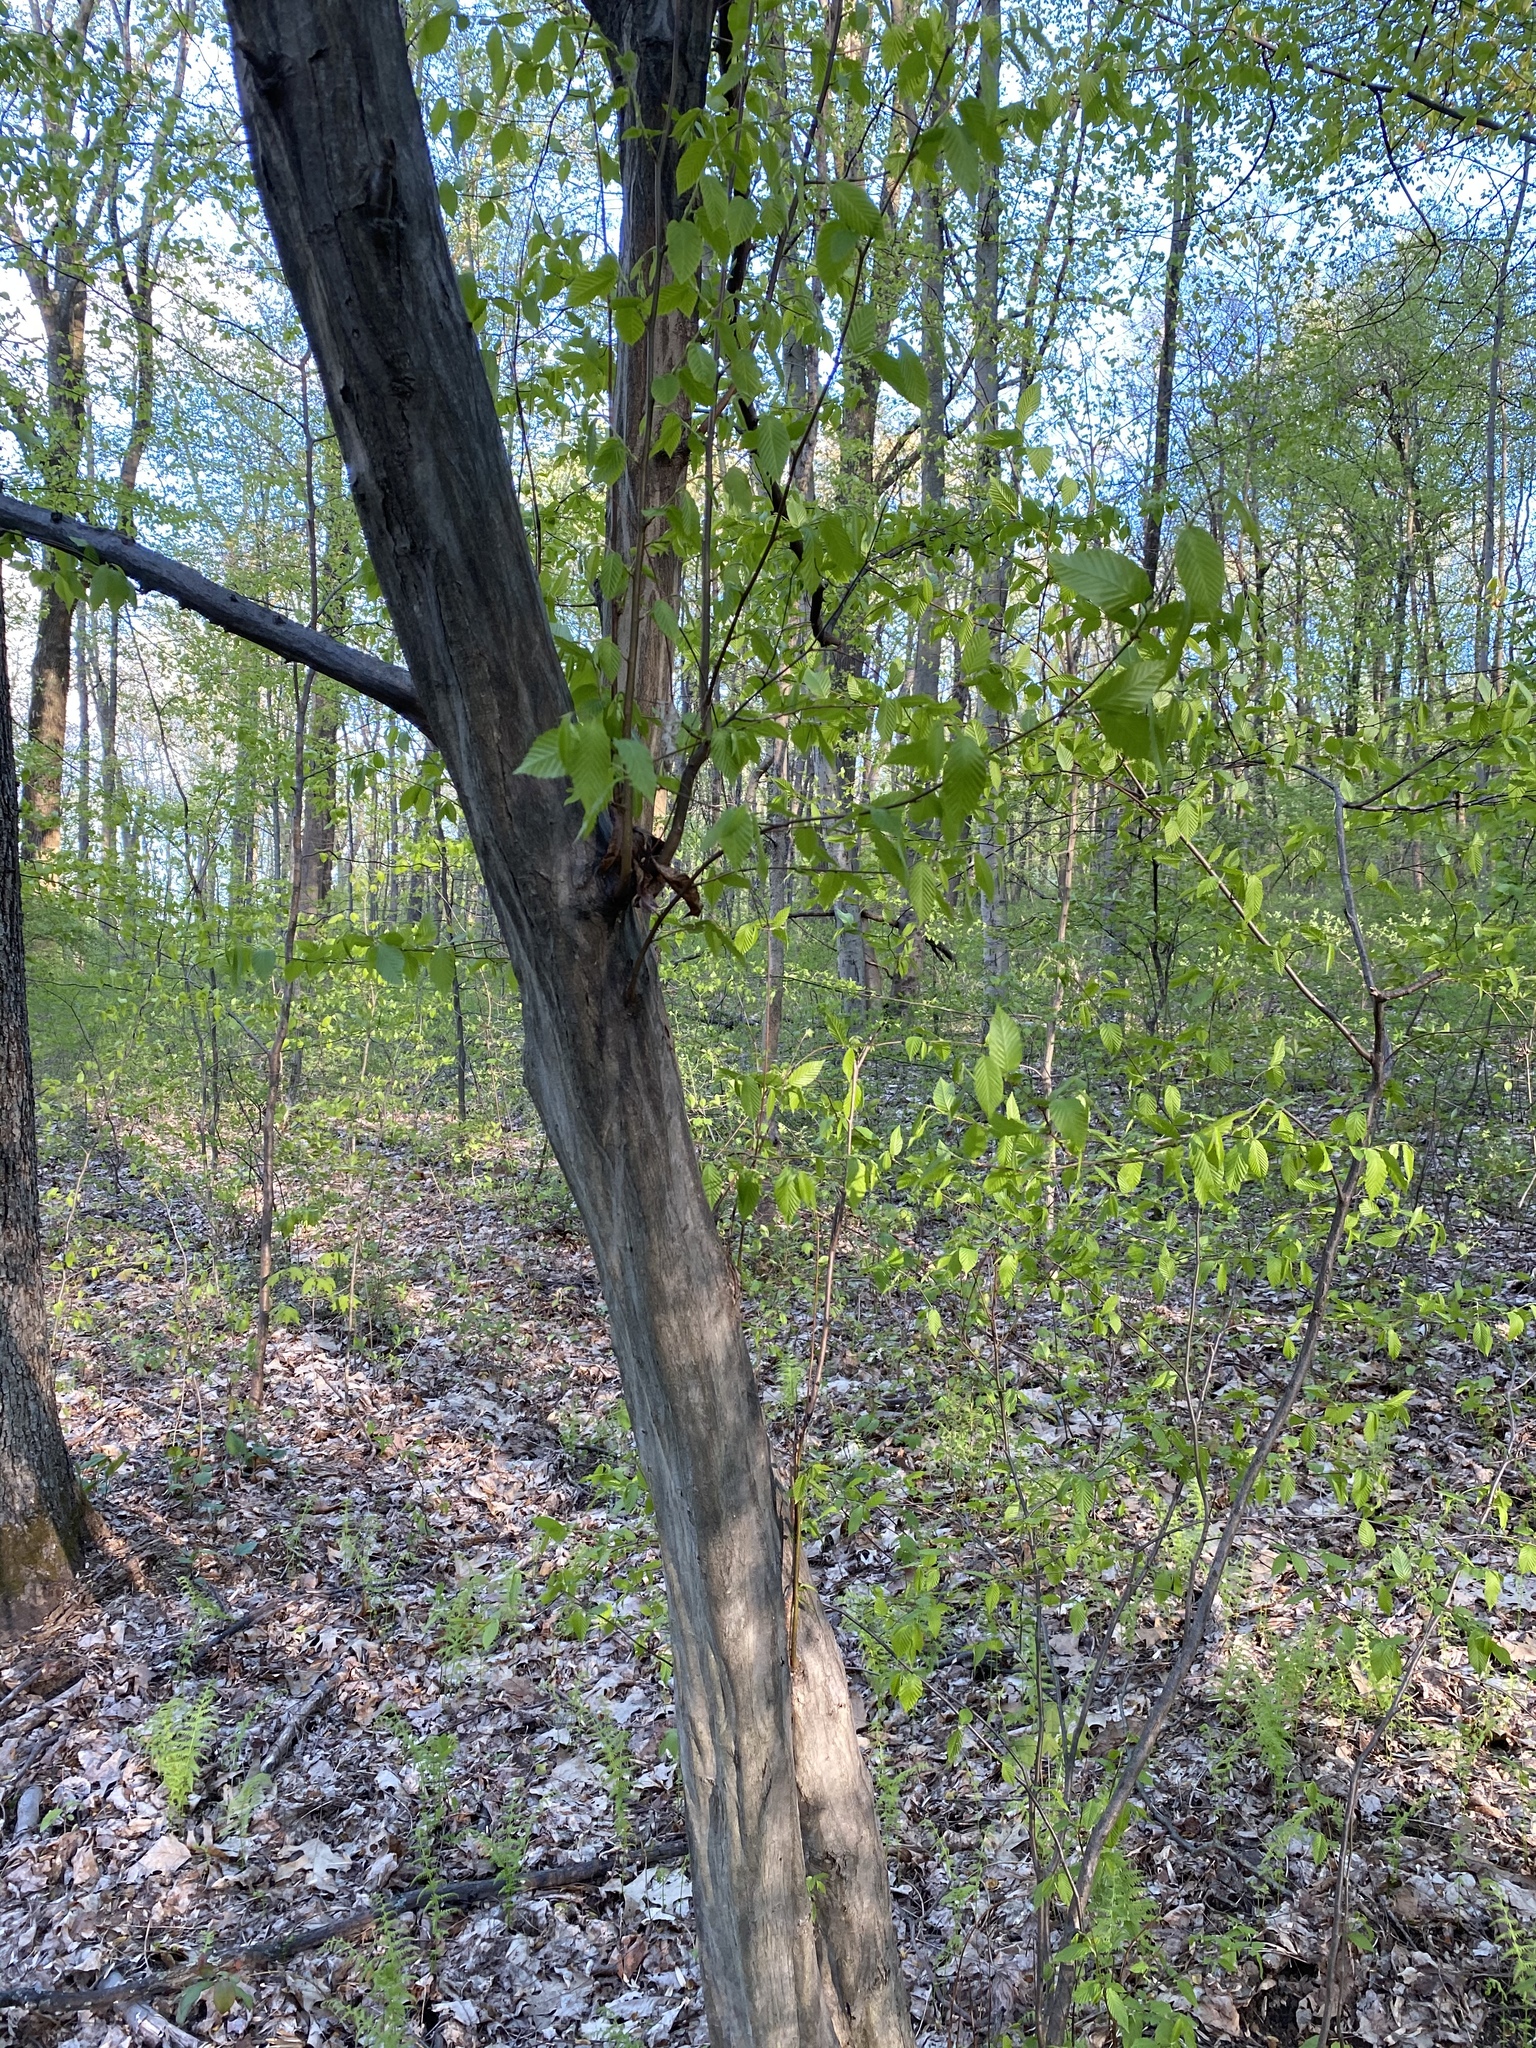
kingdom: Plantae
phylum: Tracheophyta
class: Magnoliopsida
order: Fagales
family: Betulaceae
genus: Carpinus
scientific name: Carpinus caroliniana
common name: American hornbeam
